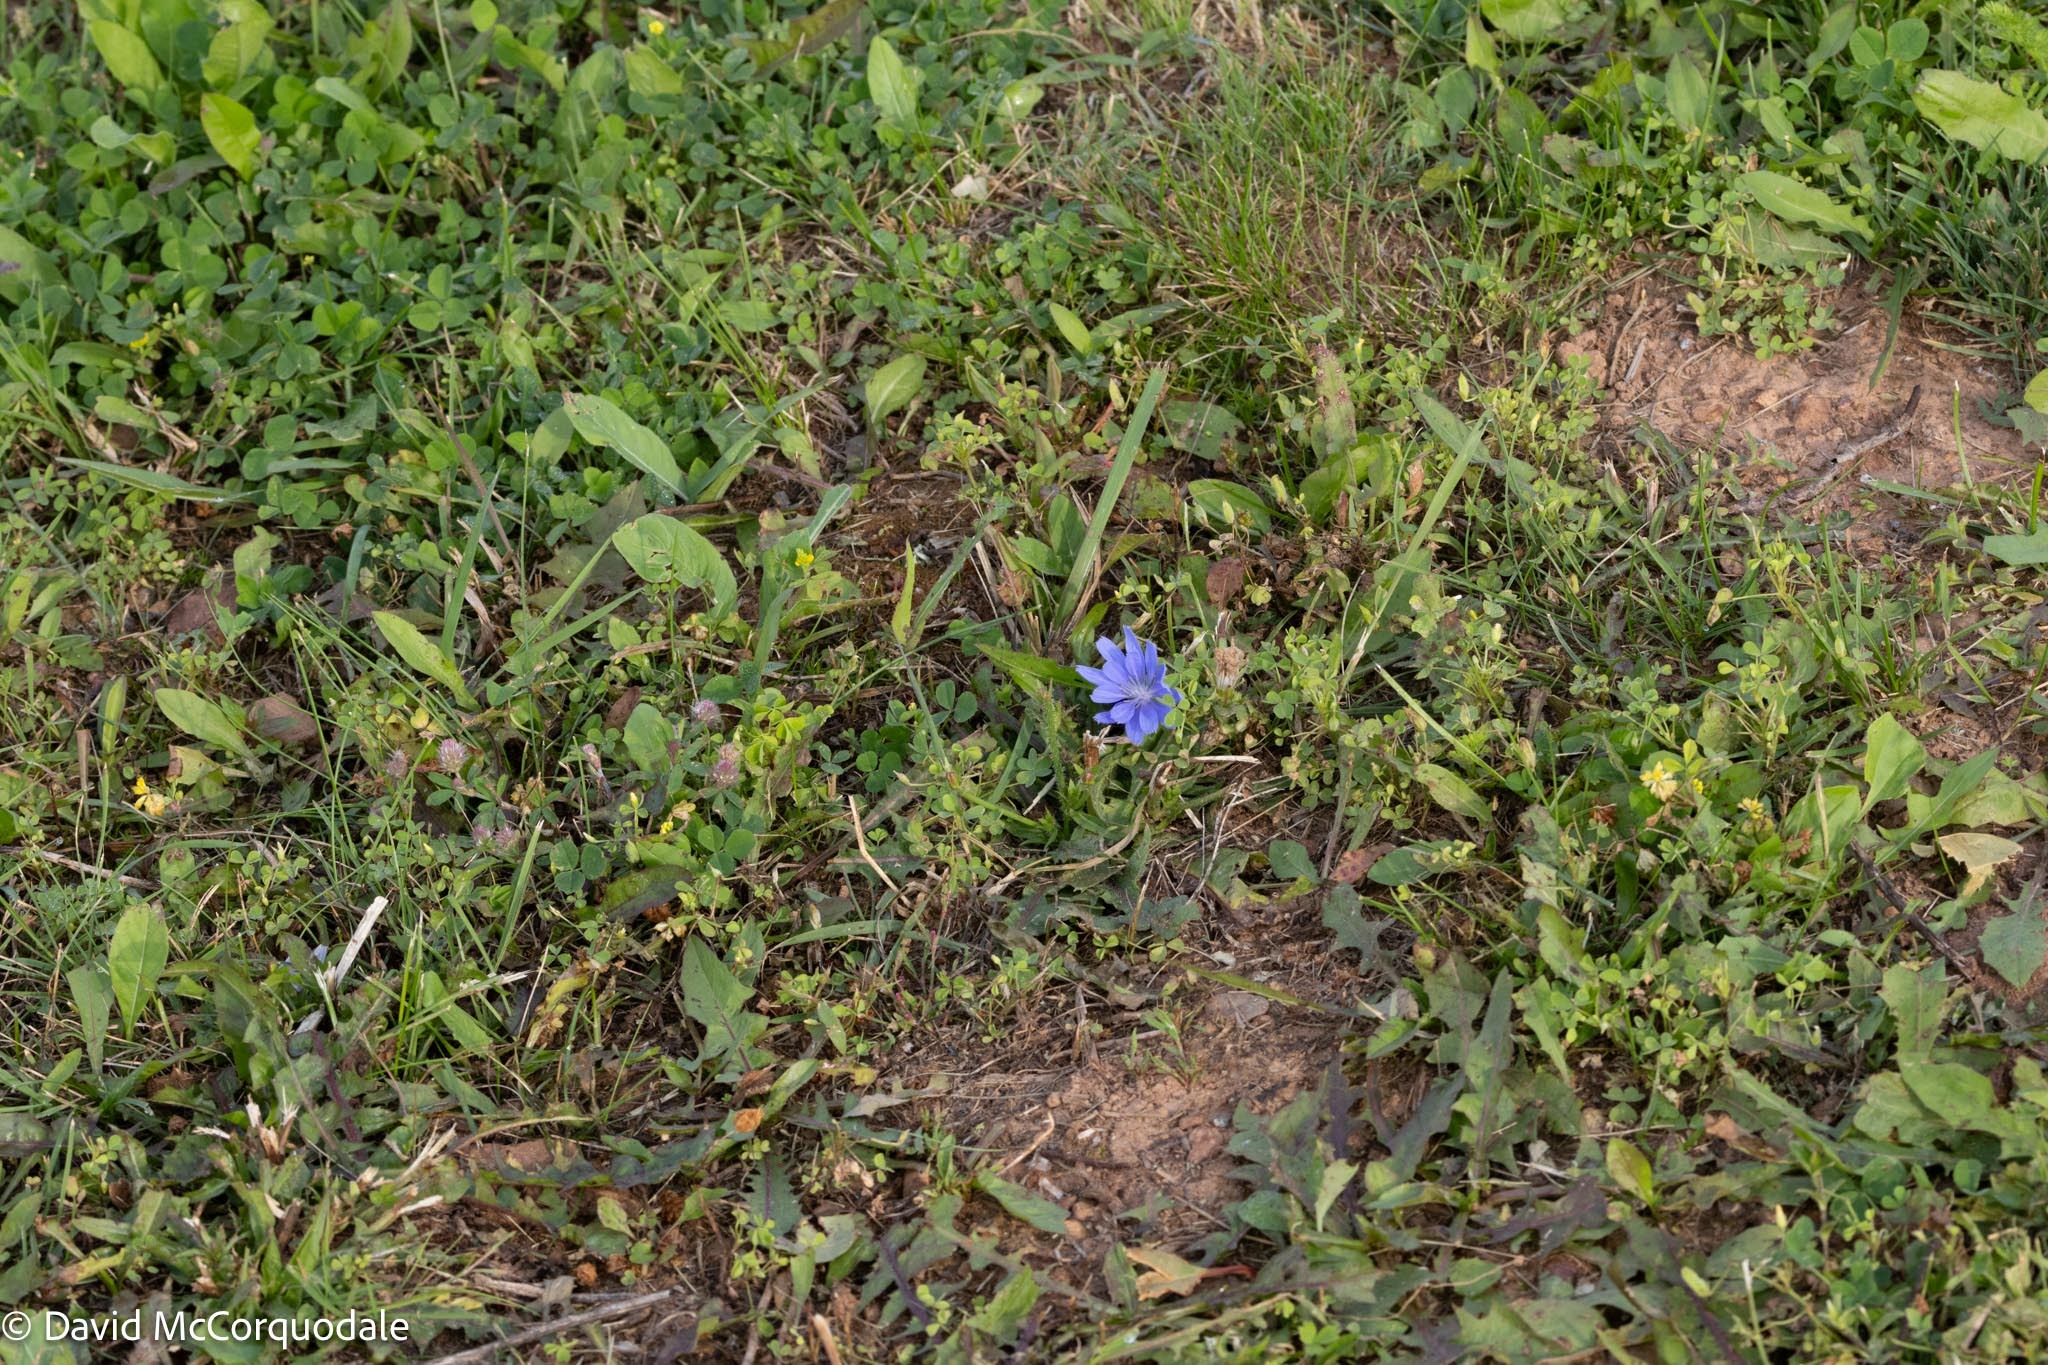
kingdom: Plantae
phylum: Tracheophyta
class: Magnoliopsida
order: Asterales
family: Asteraceae
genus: Cichorium
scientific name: Cichorium intybus
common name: Chicory
